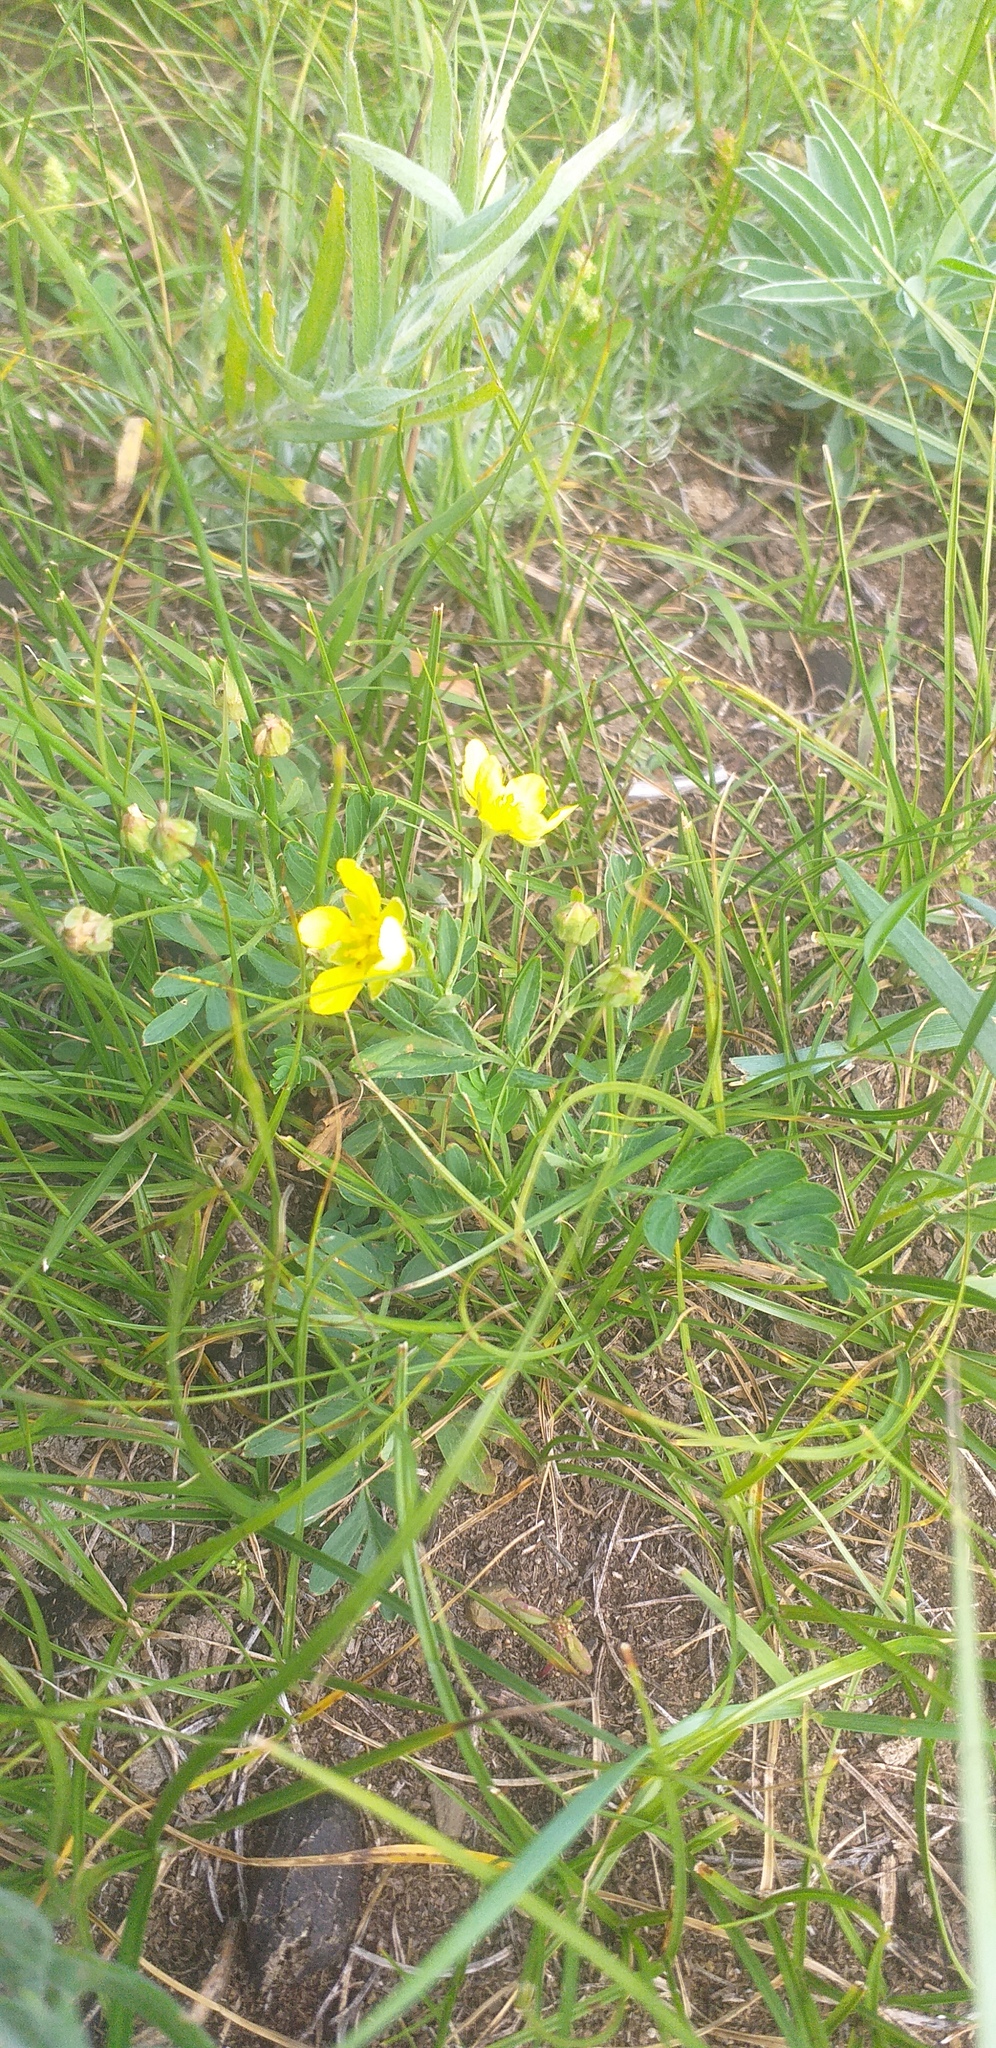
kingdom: Plantae
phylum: Tracheophyta
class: Magnoliopsida
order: Rosales
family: Rosaceae
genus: Sibbaldianthe
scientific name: Sibbaldianthe bifurca
